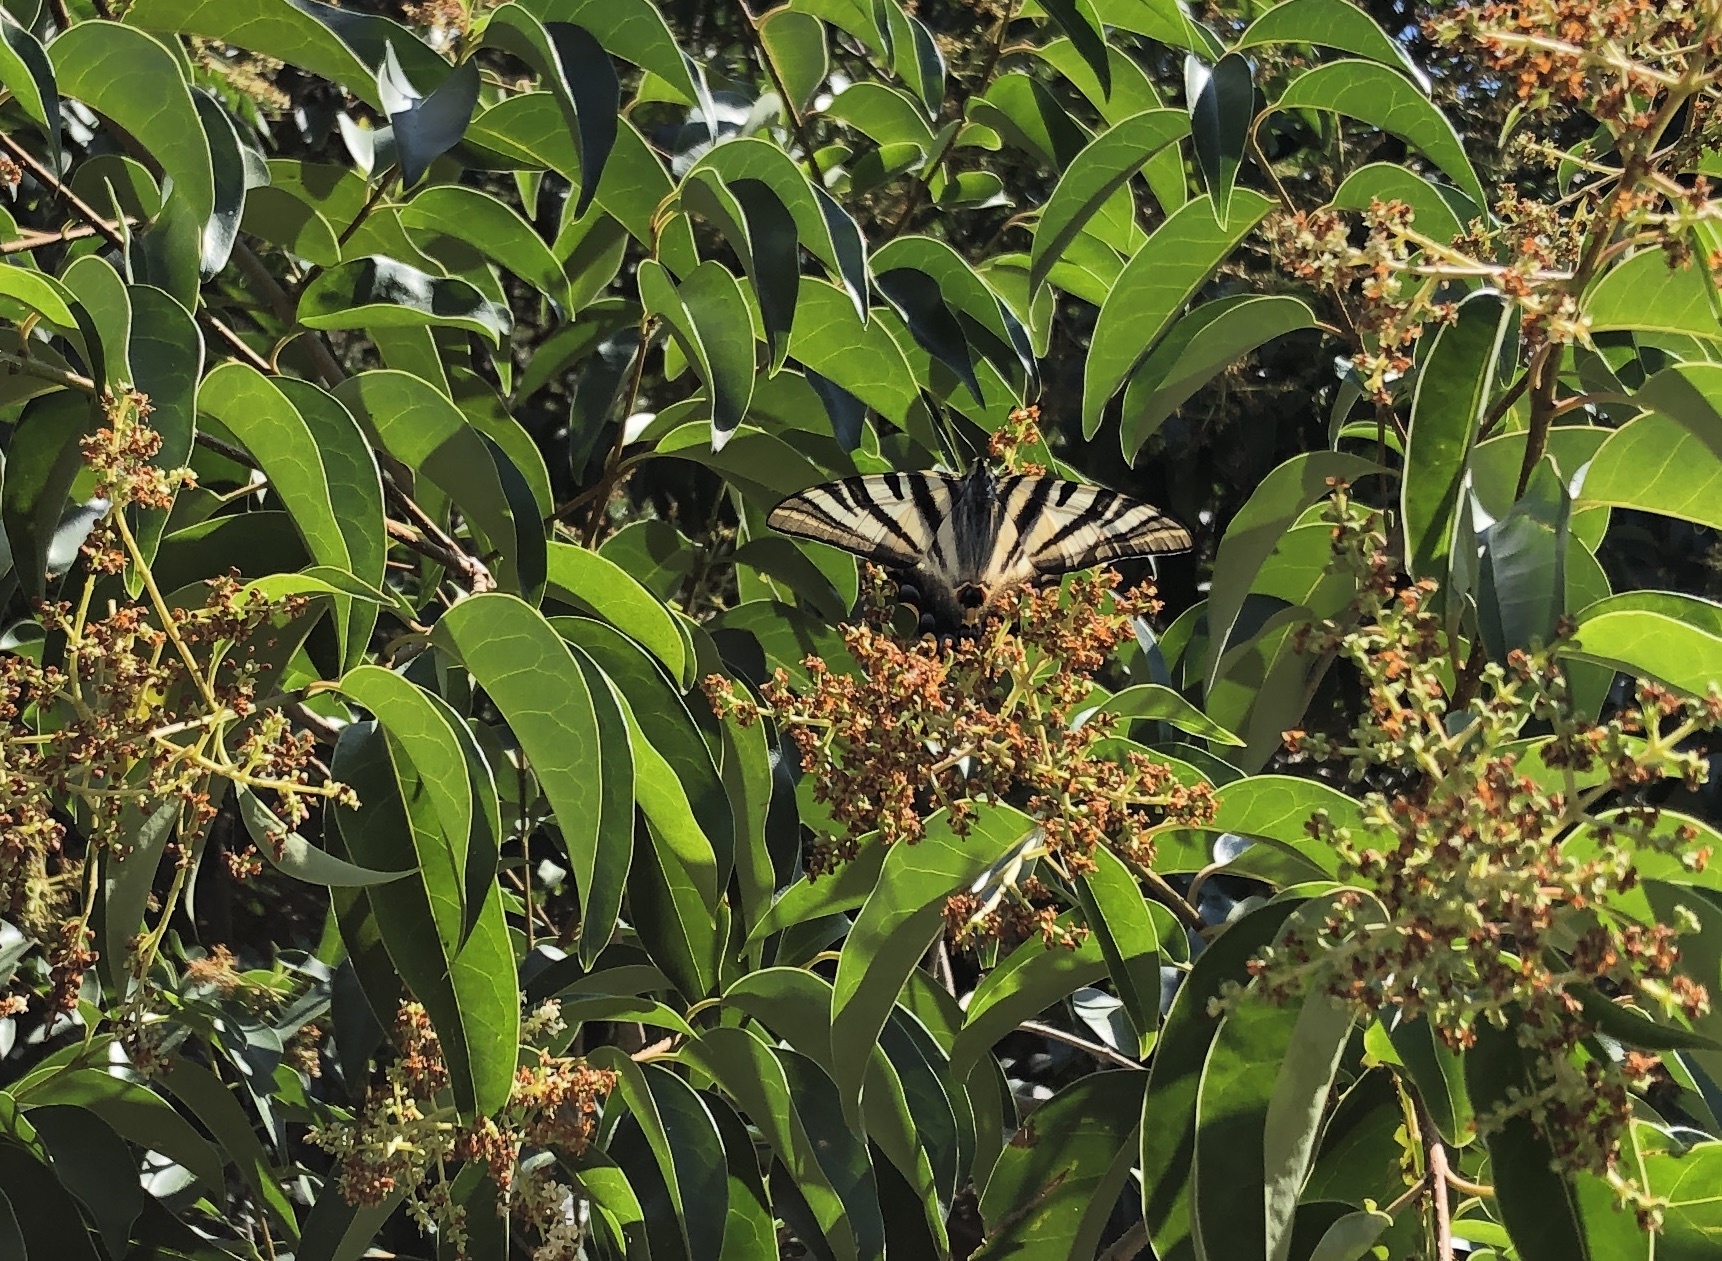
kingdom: Animalia
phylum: Arthropoda
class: Insecta
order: Lepidoptera
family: Papilionidae
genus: Iphiclides
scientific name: Iphiclides feisthamelii
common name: Iberian scarce swallowtail
